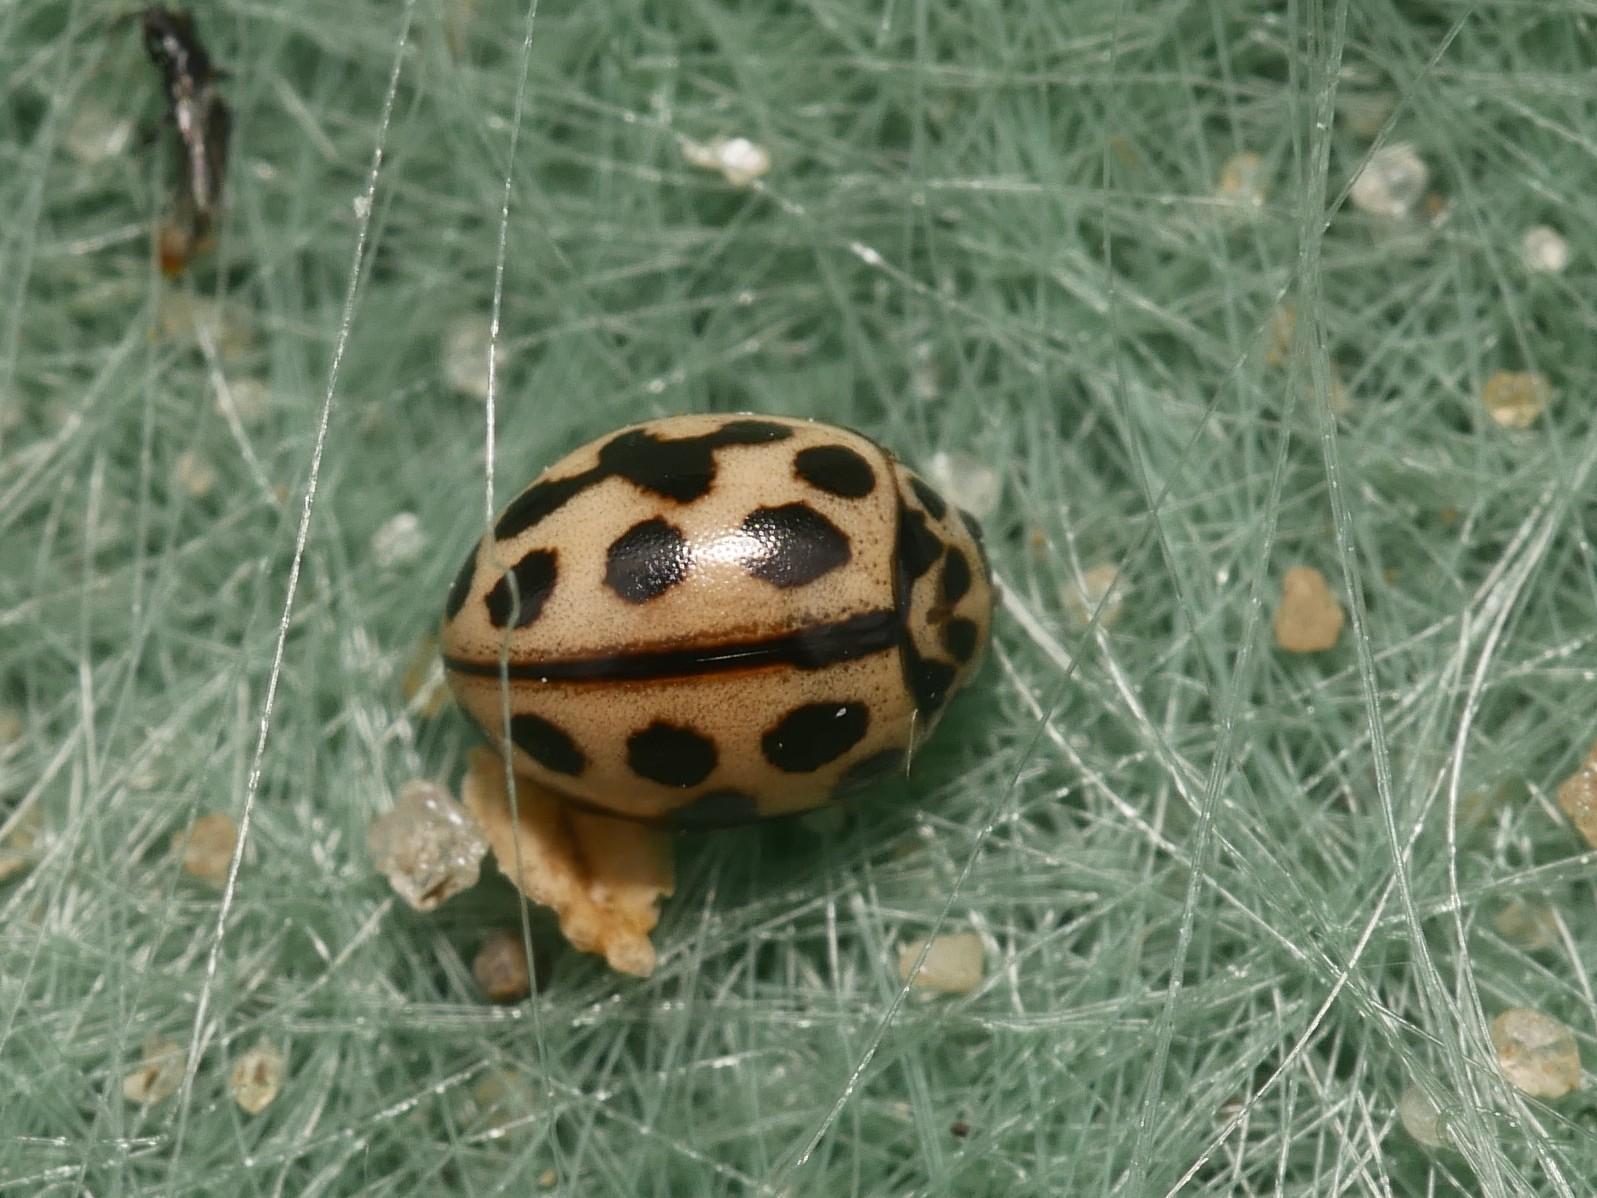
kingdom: Animalia
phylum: Arthropoda
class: Insecta
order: Coleoptera
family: Coccinellidae
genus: Tytthaspis
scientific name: Tytthaspis sedecimpunctata
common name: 16-spot ladybird
